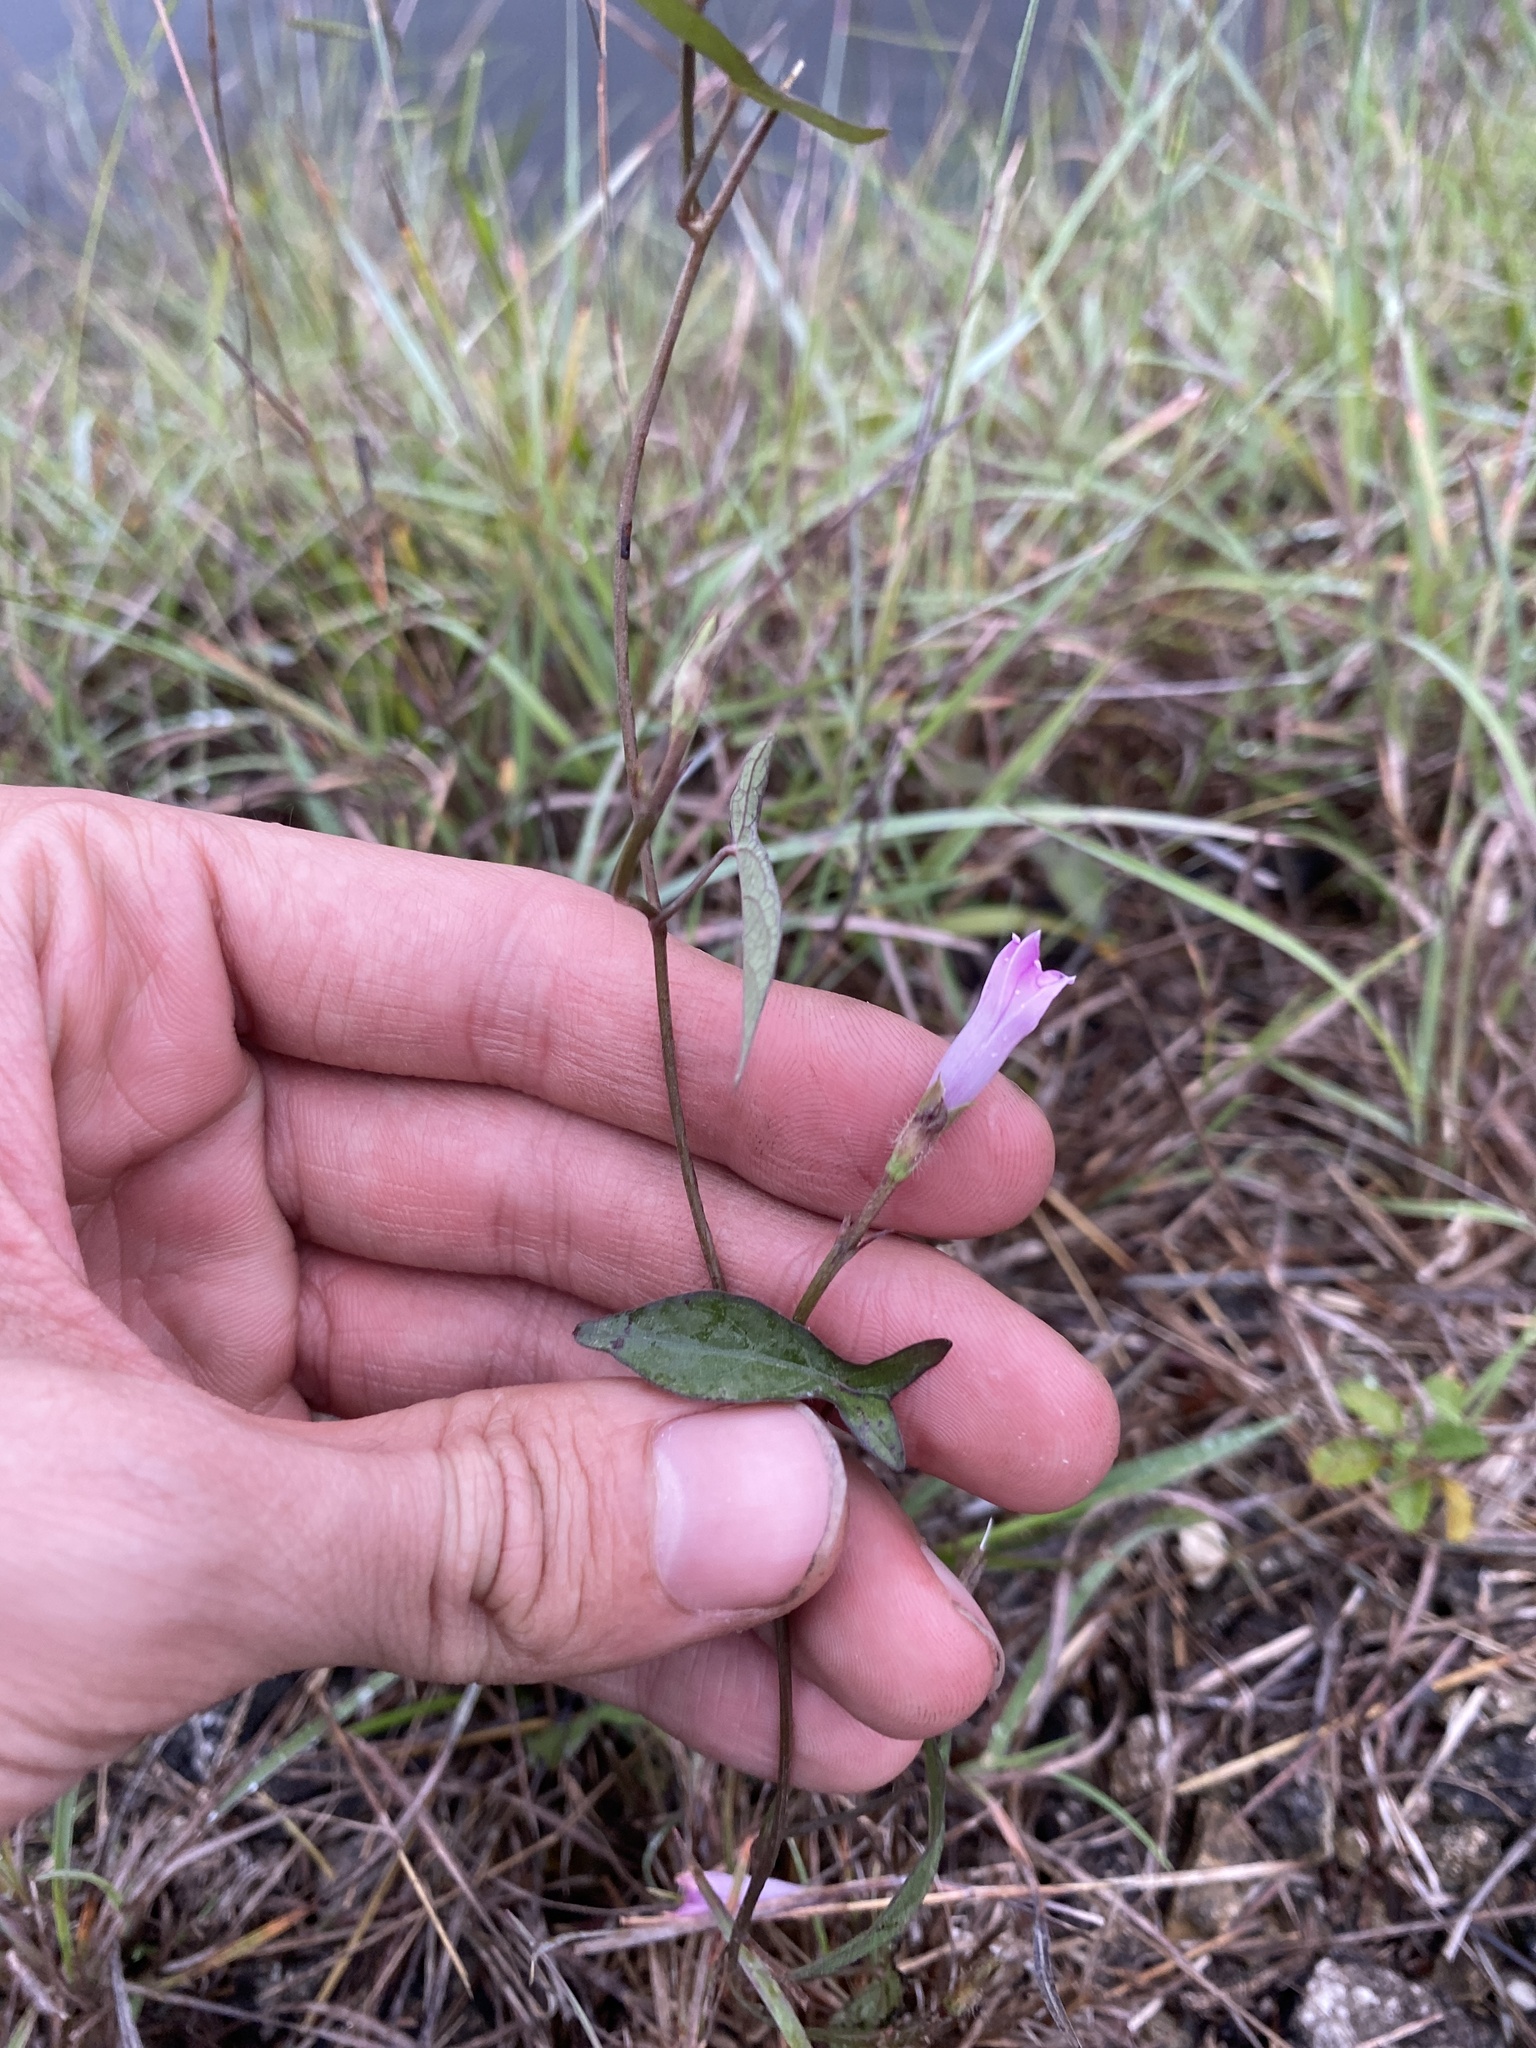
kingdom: Plantae
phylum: Tracheophyta
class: Magnoliopsida
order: Solanales
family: Convolvulaceae
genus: Ipomoea
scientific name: Ipomoea triloba
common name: Little-bell
